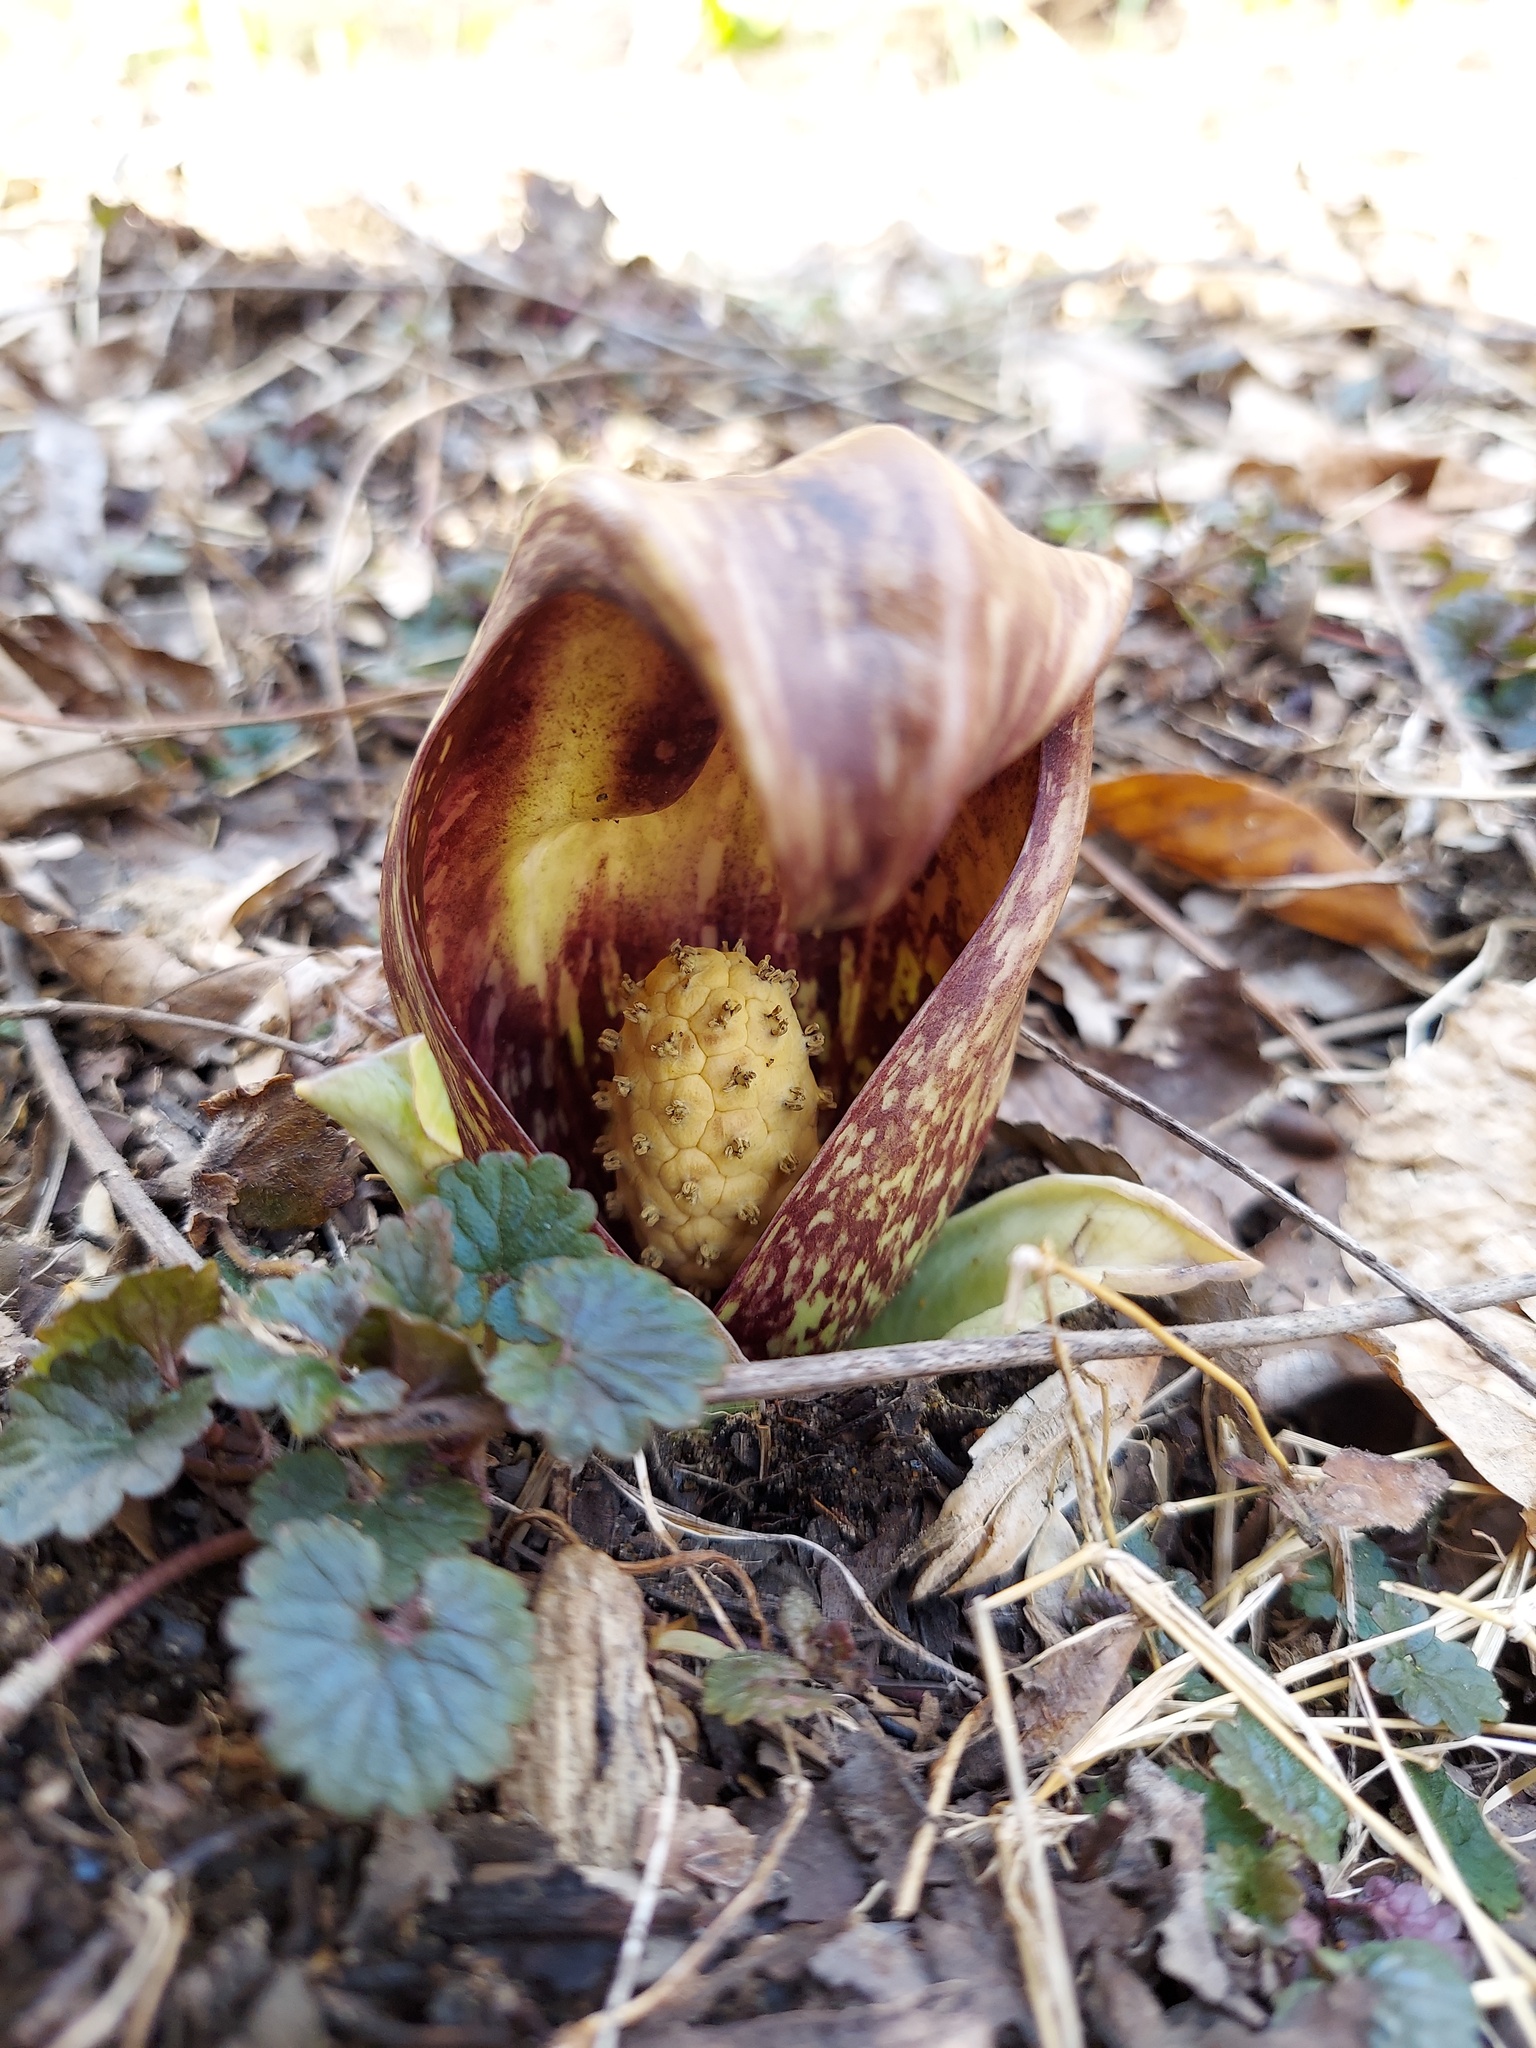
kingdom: Plantae
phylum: Tracheophyta
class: Liliopsida
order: Alismatales
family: Araceae
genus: Symplocarpus
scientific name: Symplocarpus foetidus
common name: Eastern skunk cabbage
